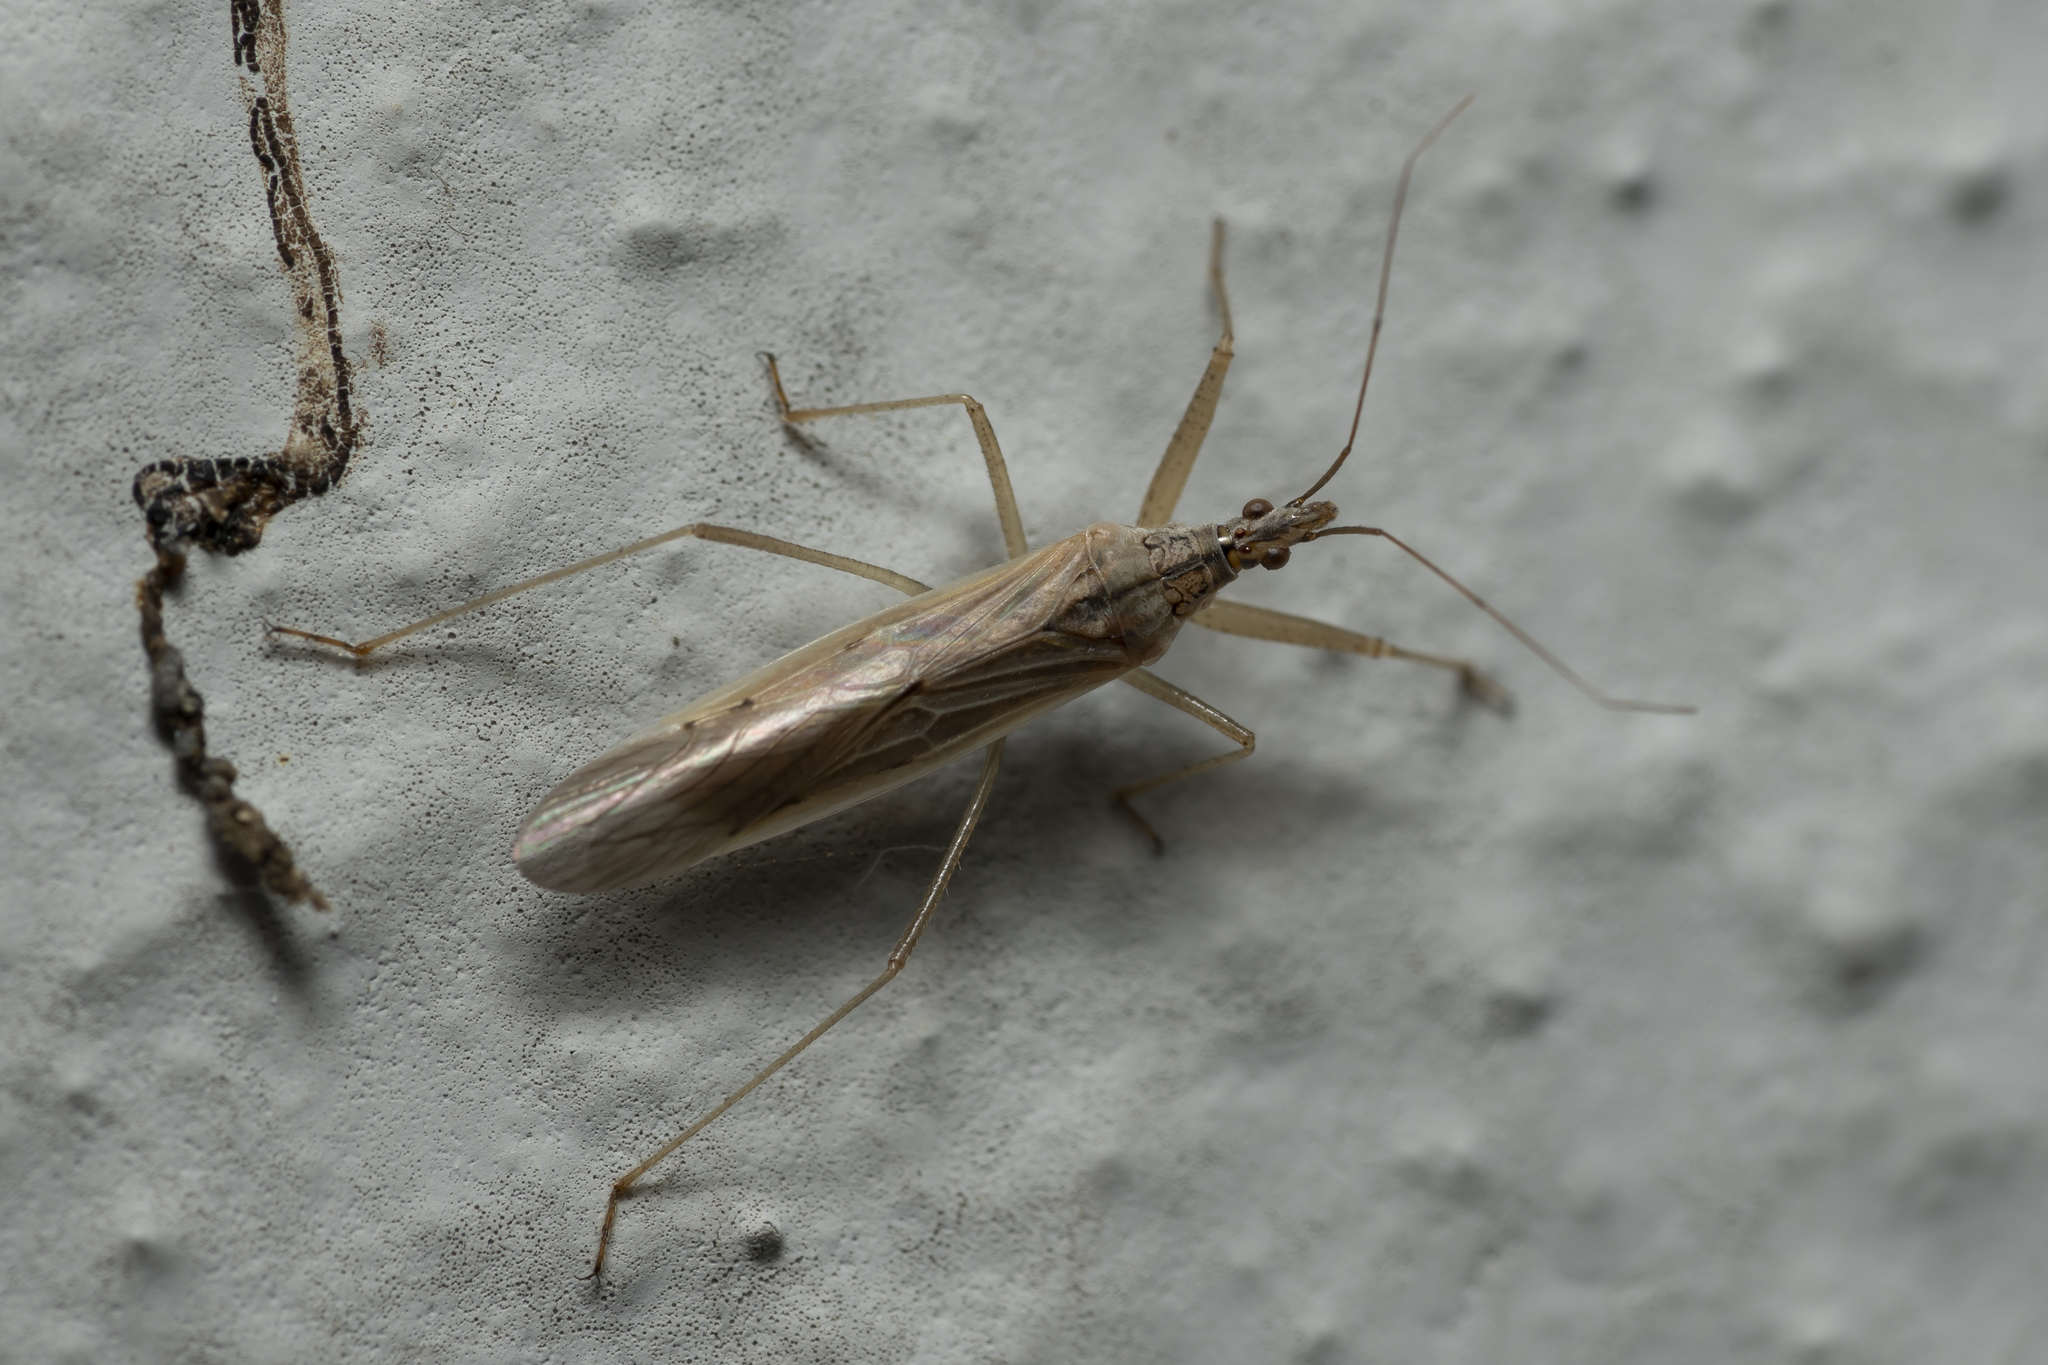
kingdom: Animalia
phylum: Arthropoda
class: Insecta
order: Hemiptera
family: Nabidae
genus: Nabis
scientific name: Nabis capsiformis
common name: Pale damsel bug
